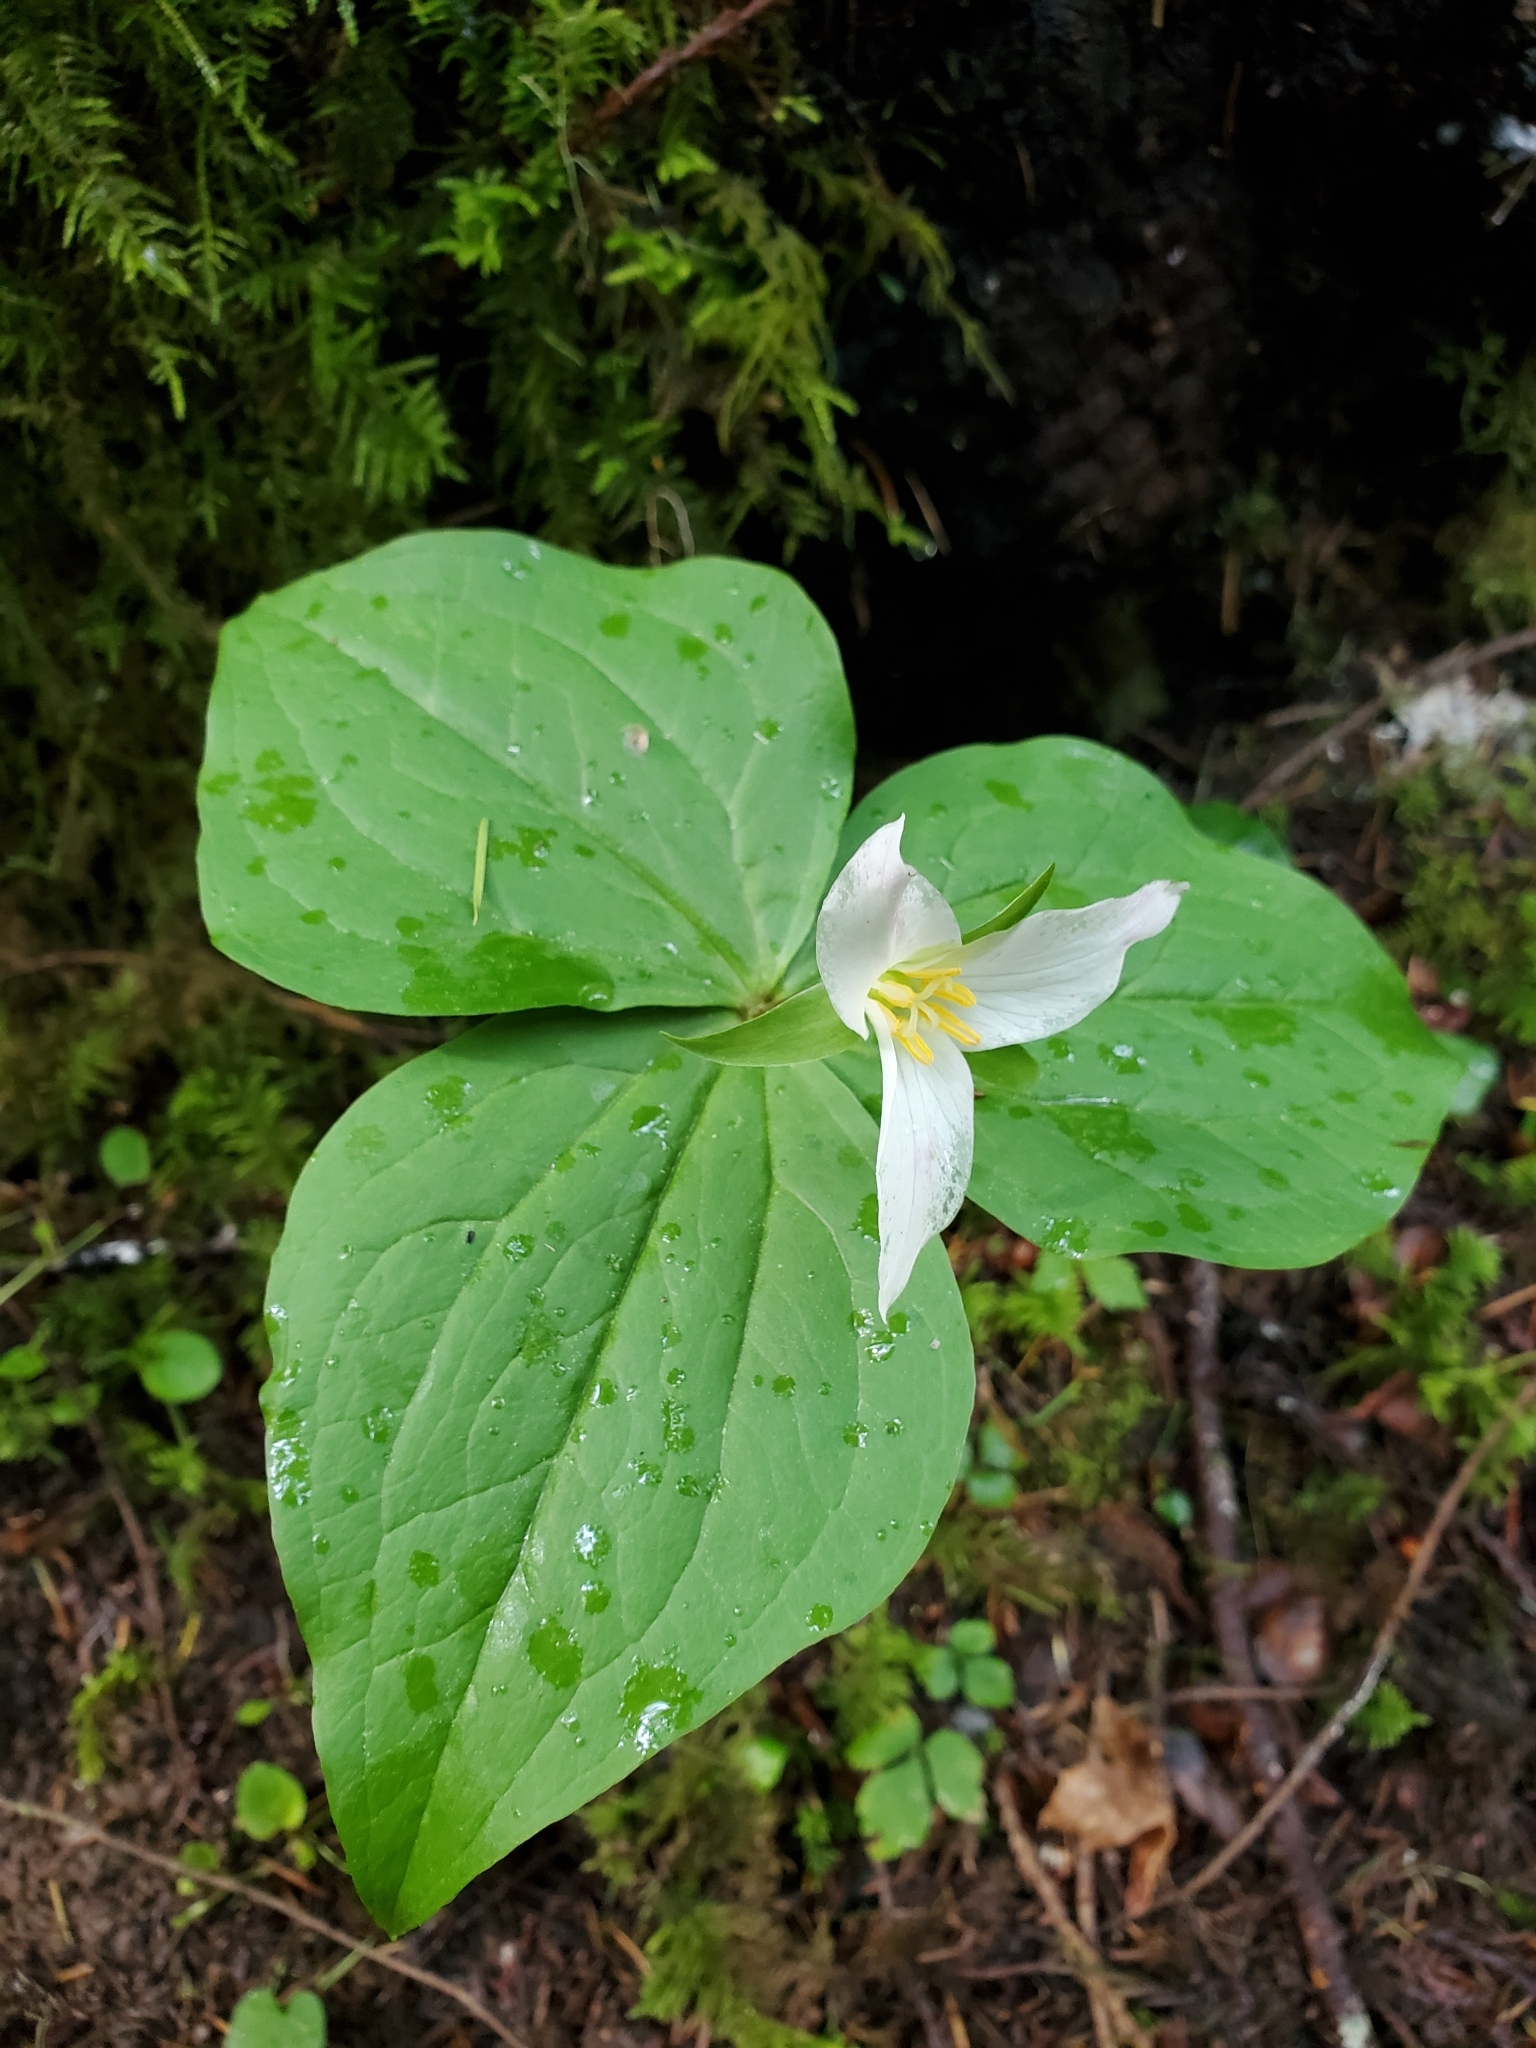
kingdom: Plantae
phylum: Tracheophyta
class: Liliopsida
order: Liliales
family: Melanthiaceae
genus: Trillium
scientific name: Trillium ovatum
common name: Pacific trillium
